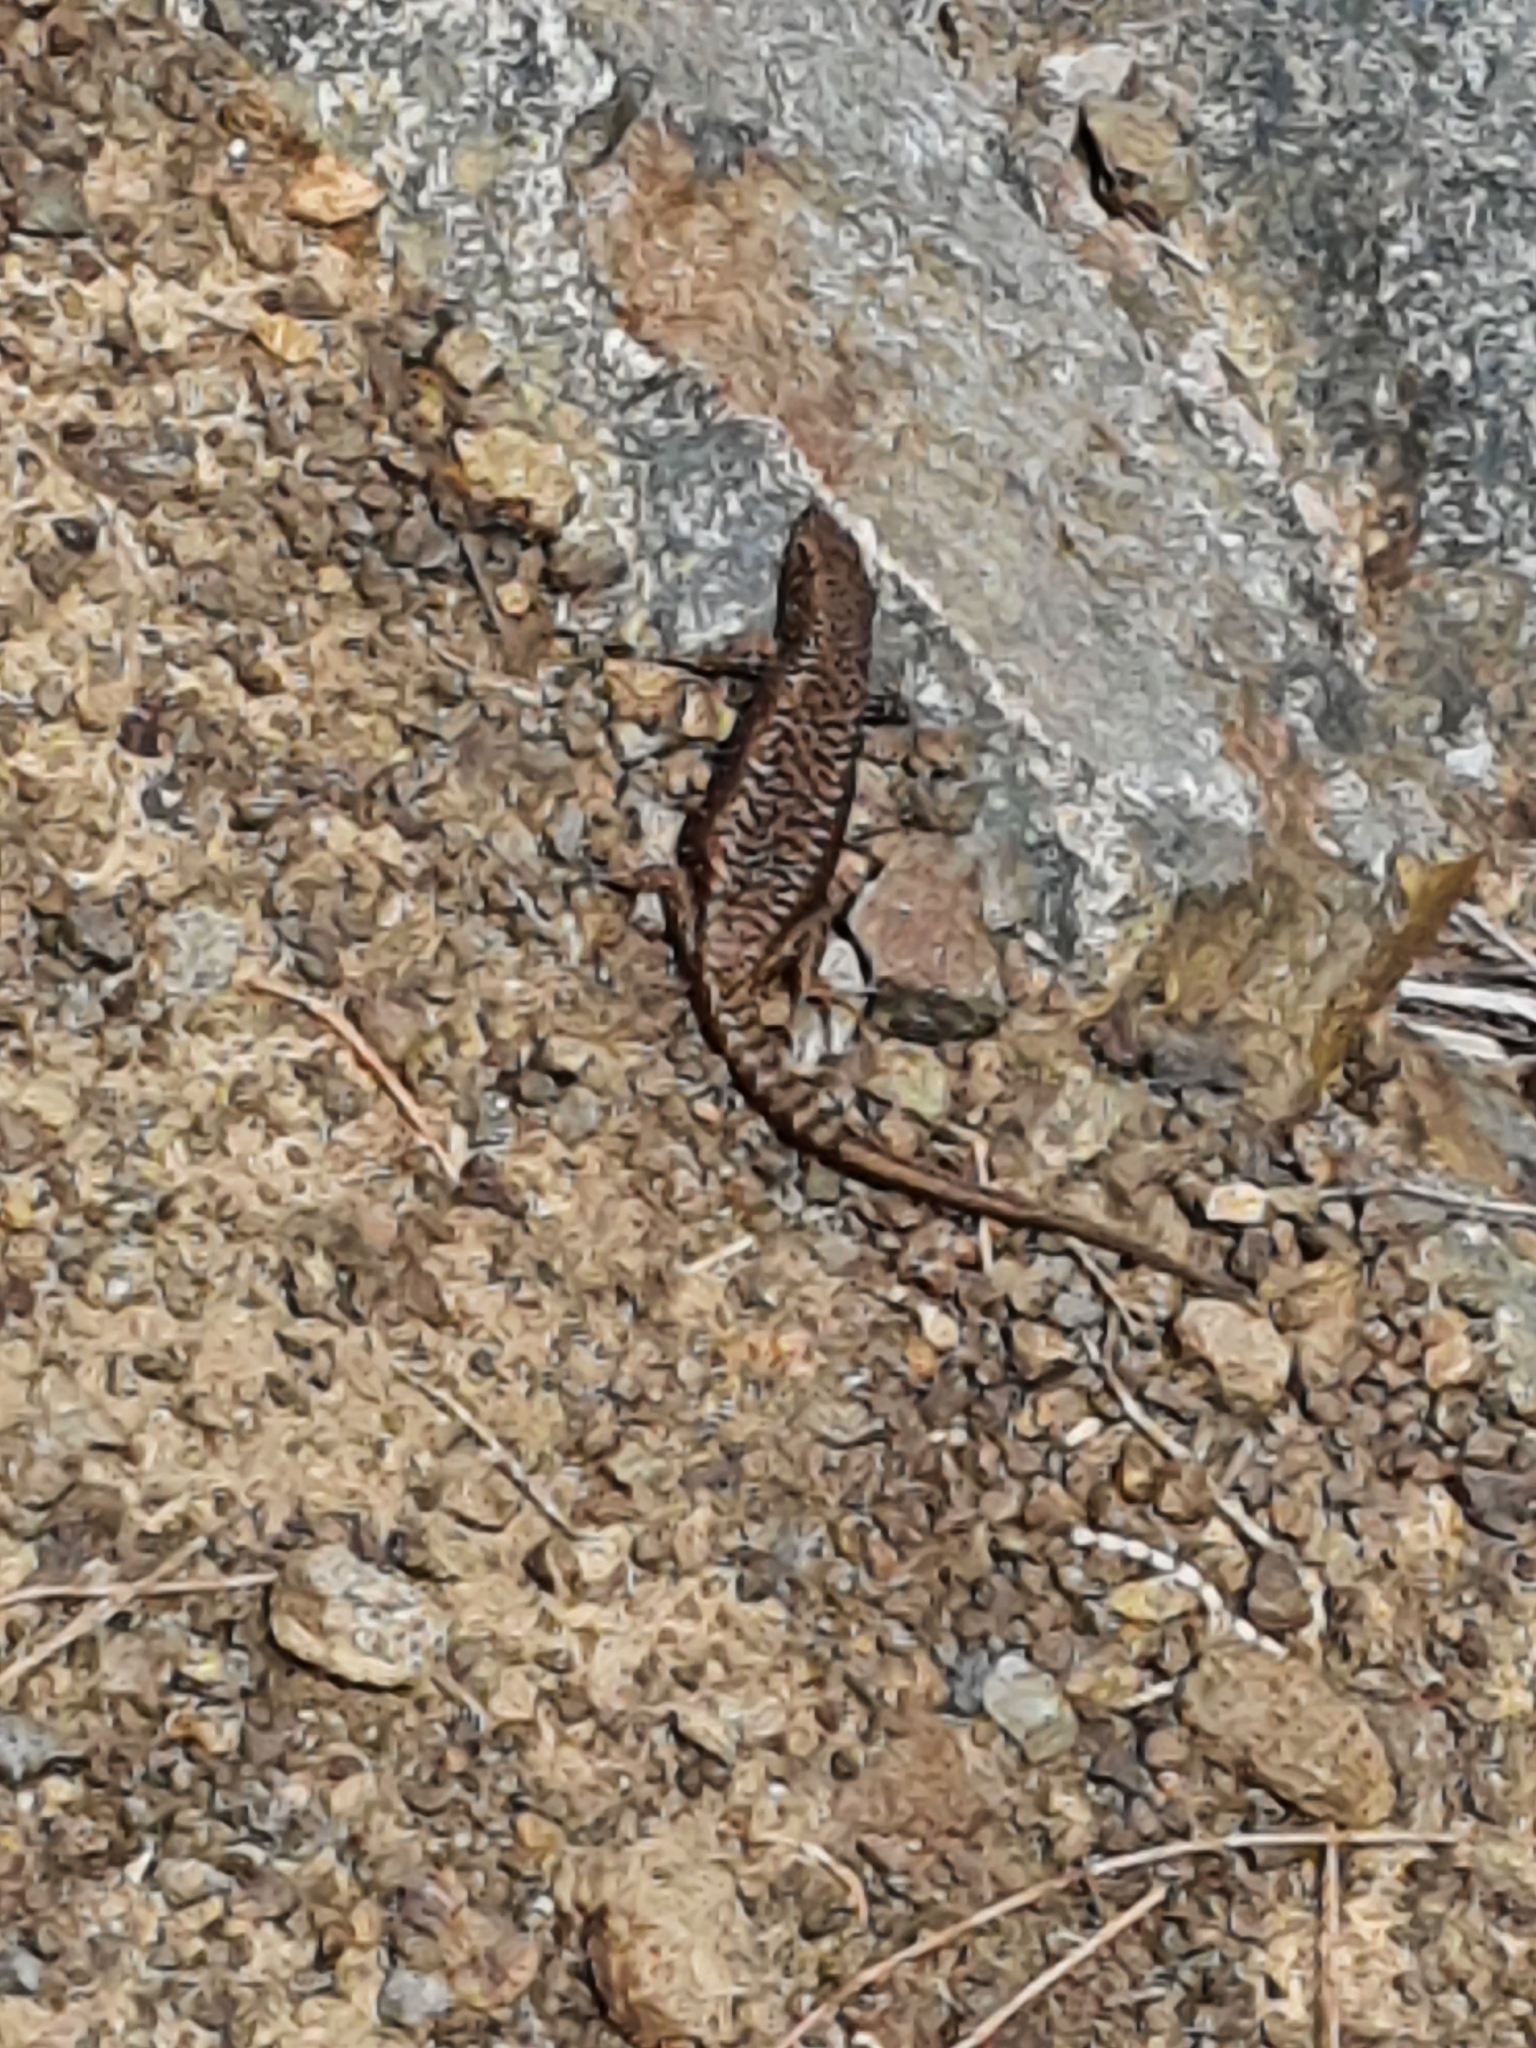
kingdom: Animalia
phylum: Chordata
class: Squamata
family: Scincidae
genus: Carinascincus
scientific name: Carinascincus ocellatus
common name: Ocellated cool-skink
